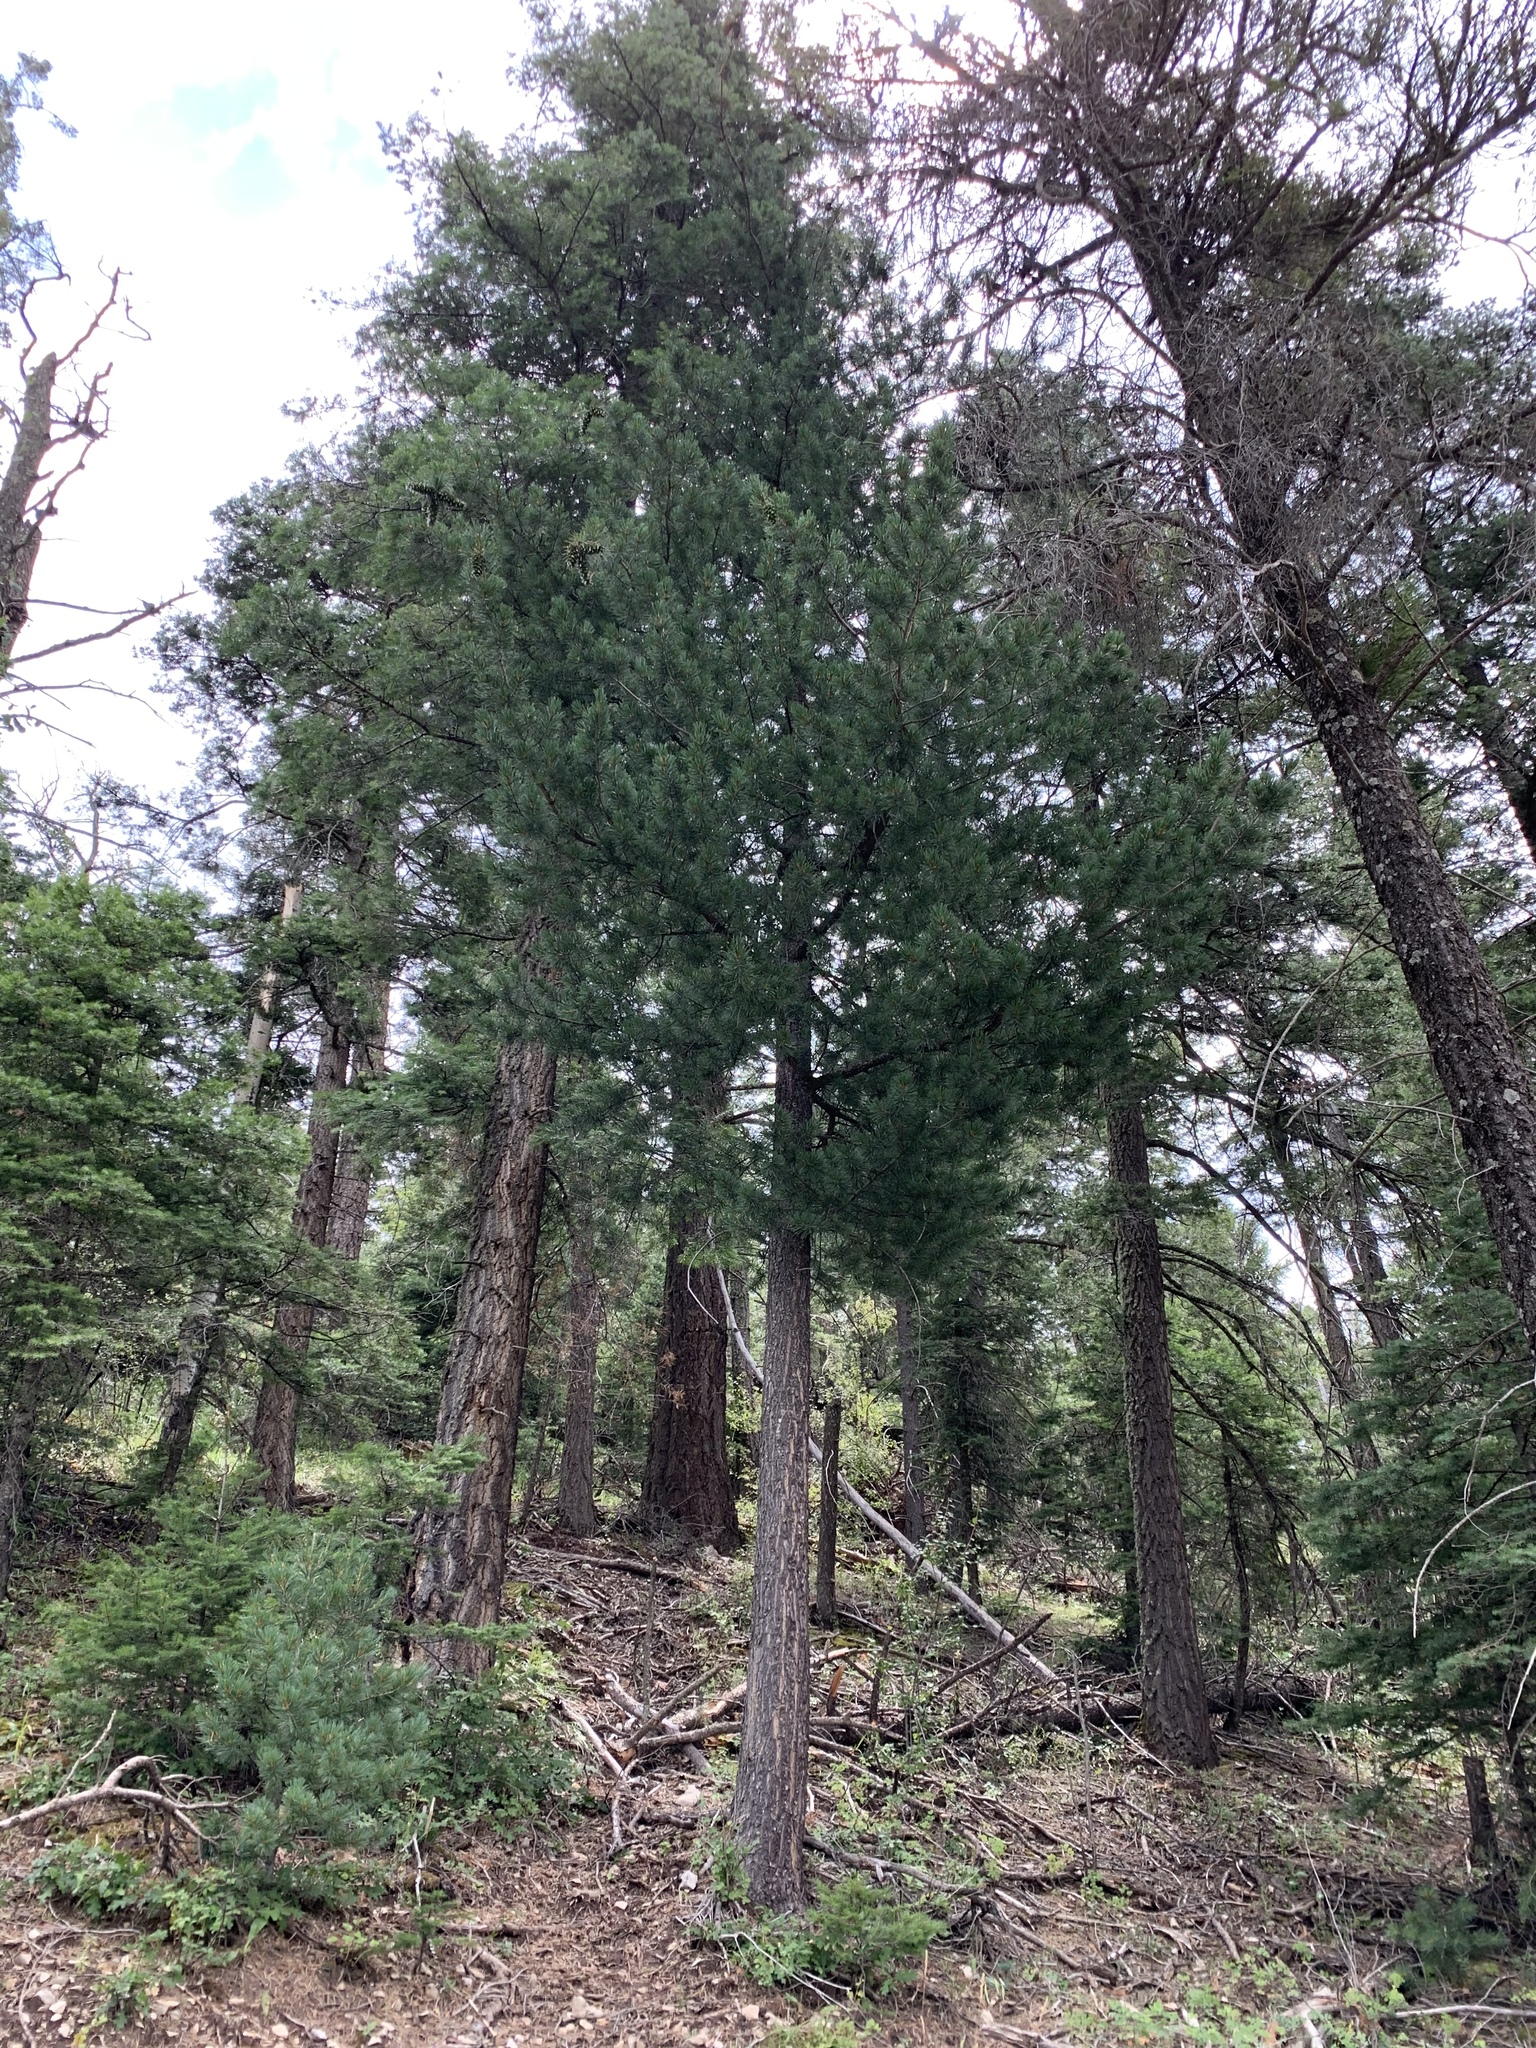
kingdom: Plantae
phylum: Tracheophyta
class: Pinopsida
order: Pinales
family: Pinaceae
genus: Pinus
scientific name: Pinus strobiformis
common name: Southwestern white pine
